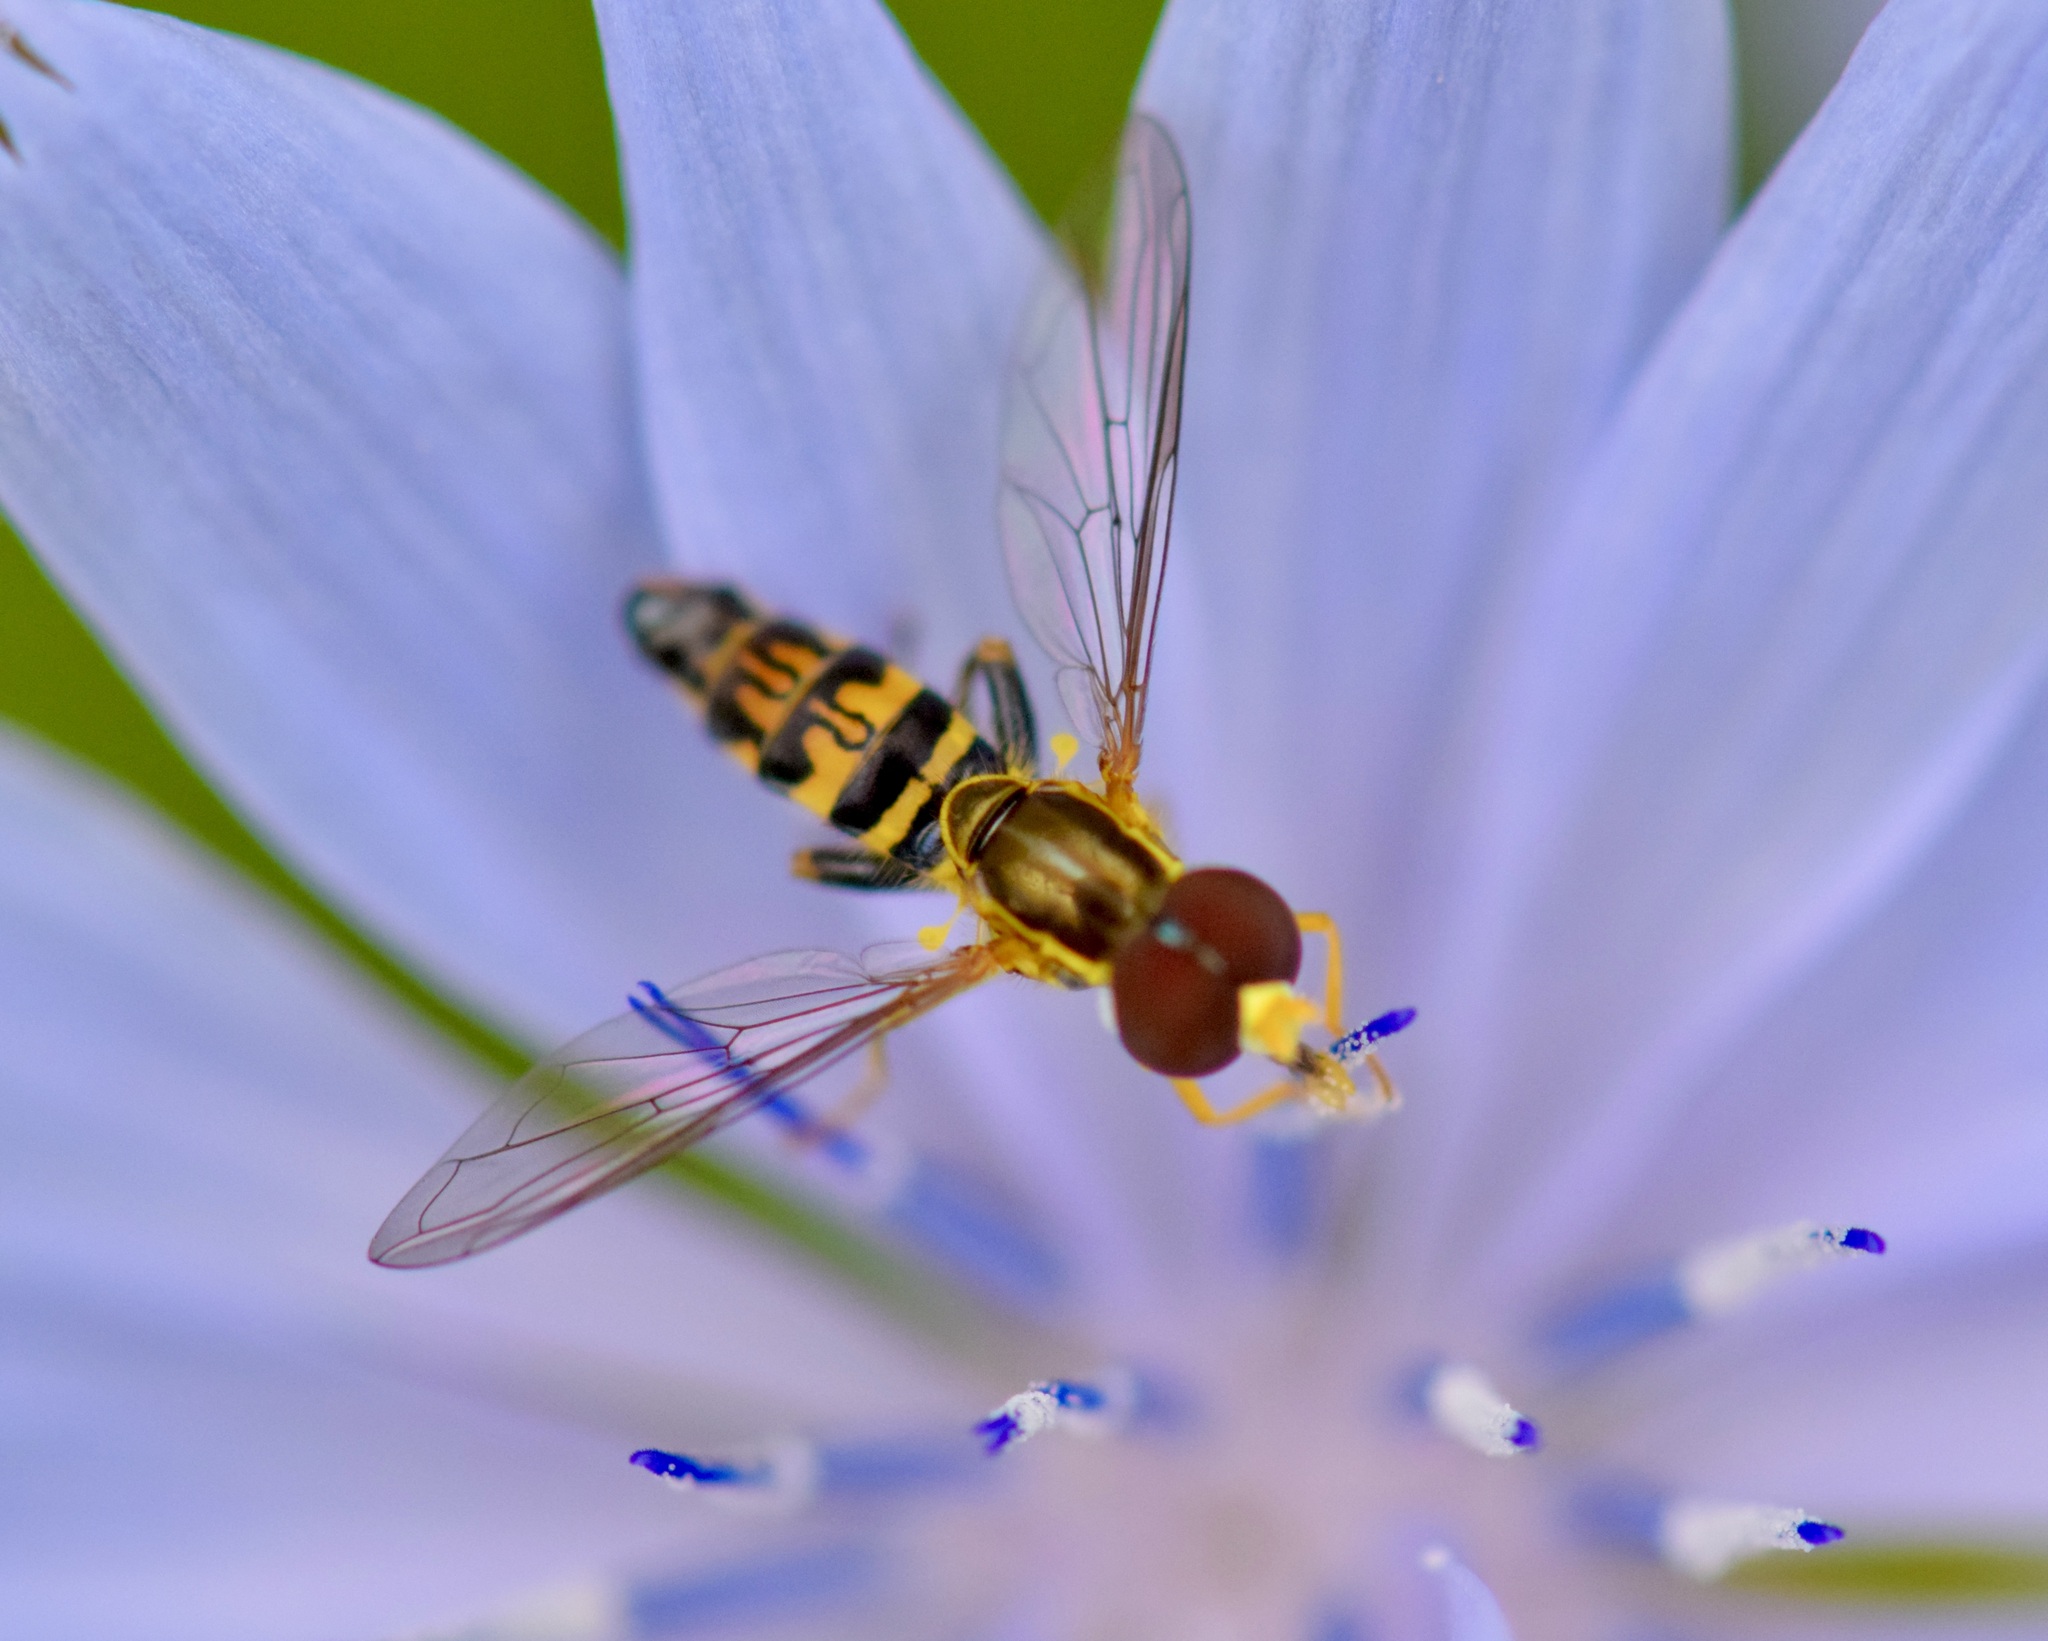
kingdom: Animalia
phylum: Arthropoda
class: Insecta
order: Diptera
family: Syrphidae
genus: Toxomerus
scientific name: Toxomerus geminatus
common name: Eastern calligrapher
